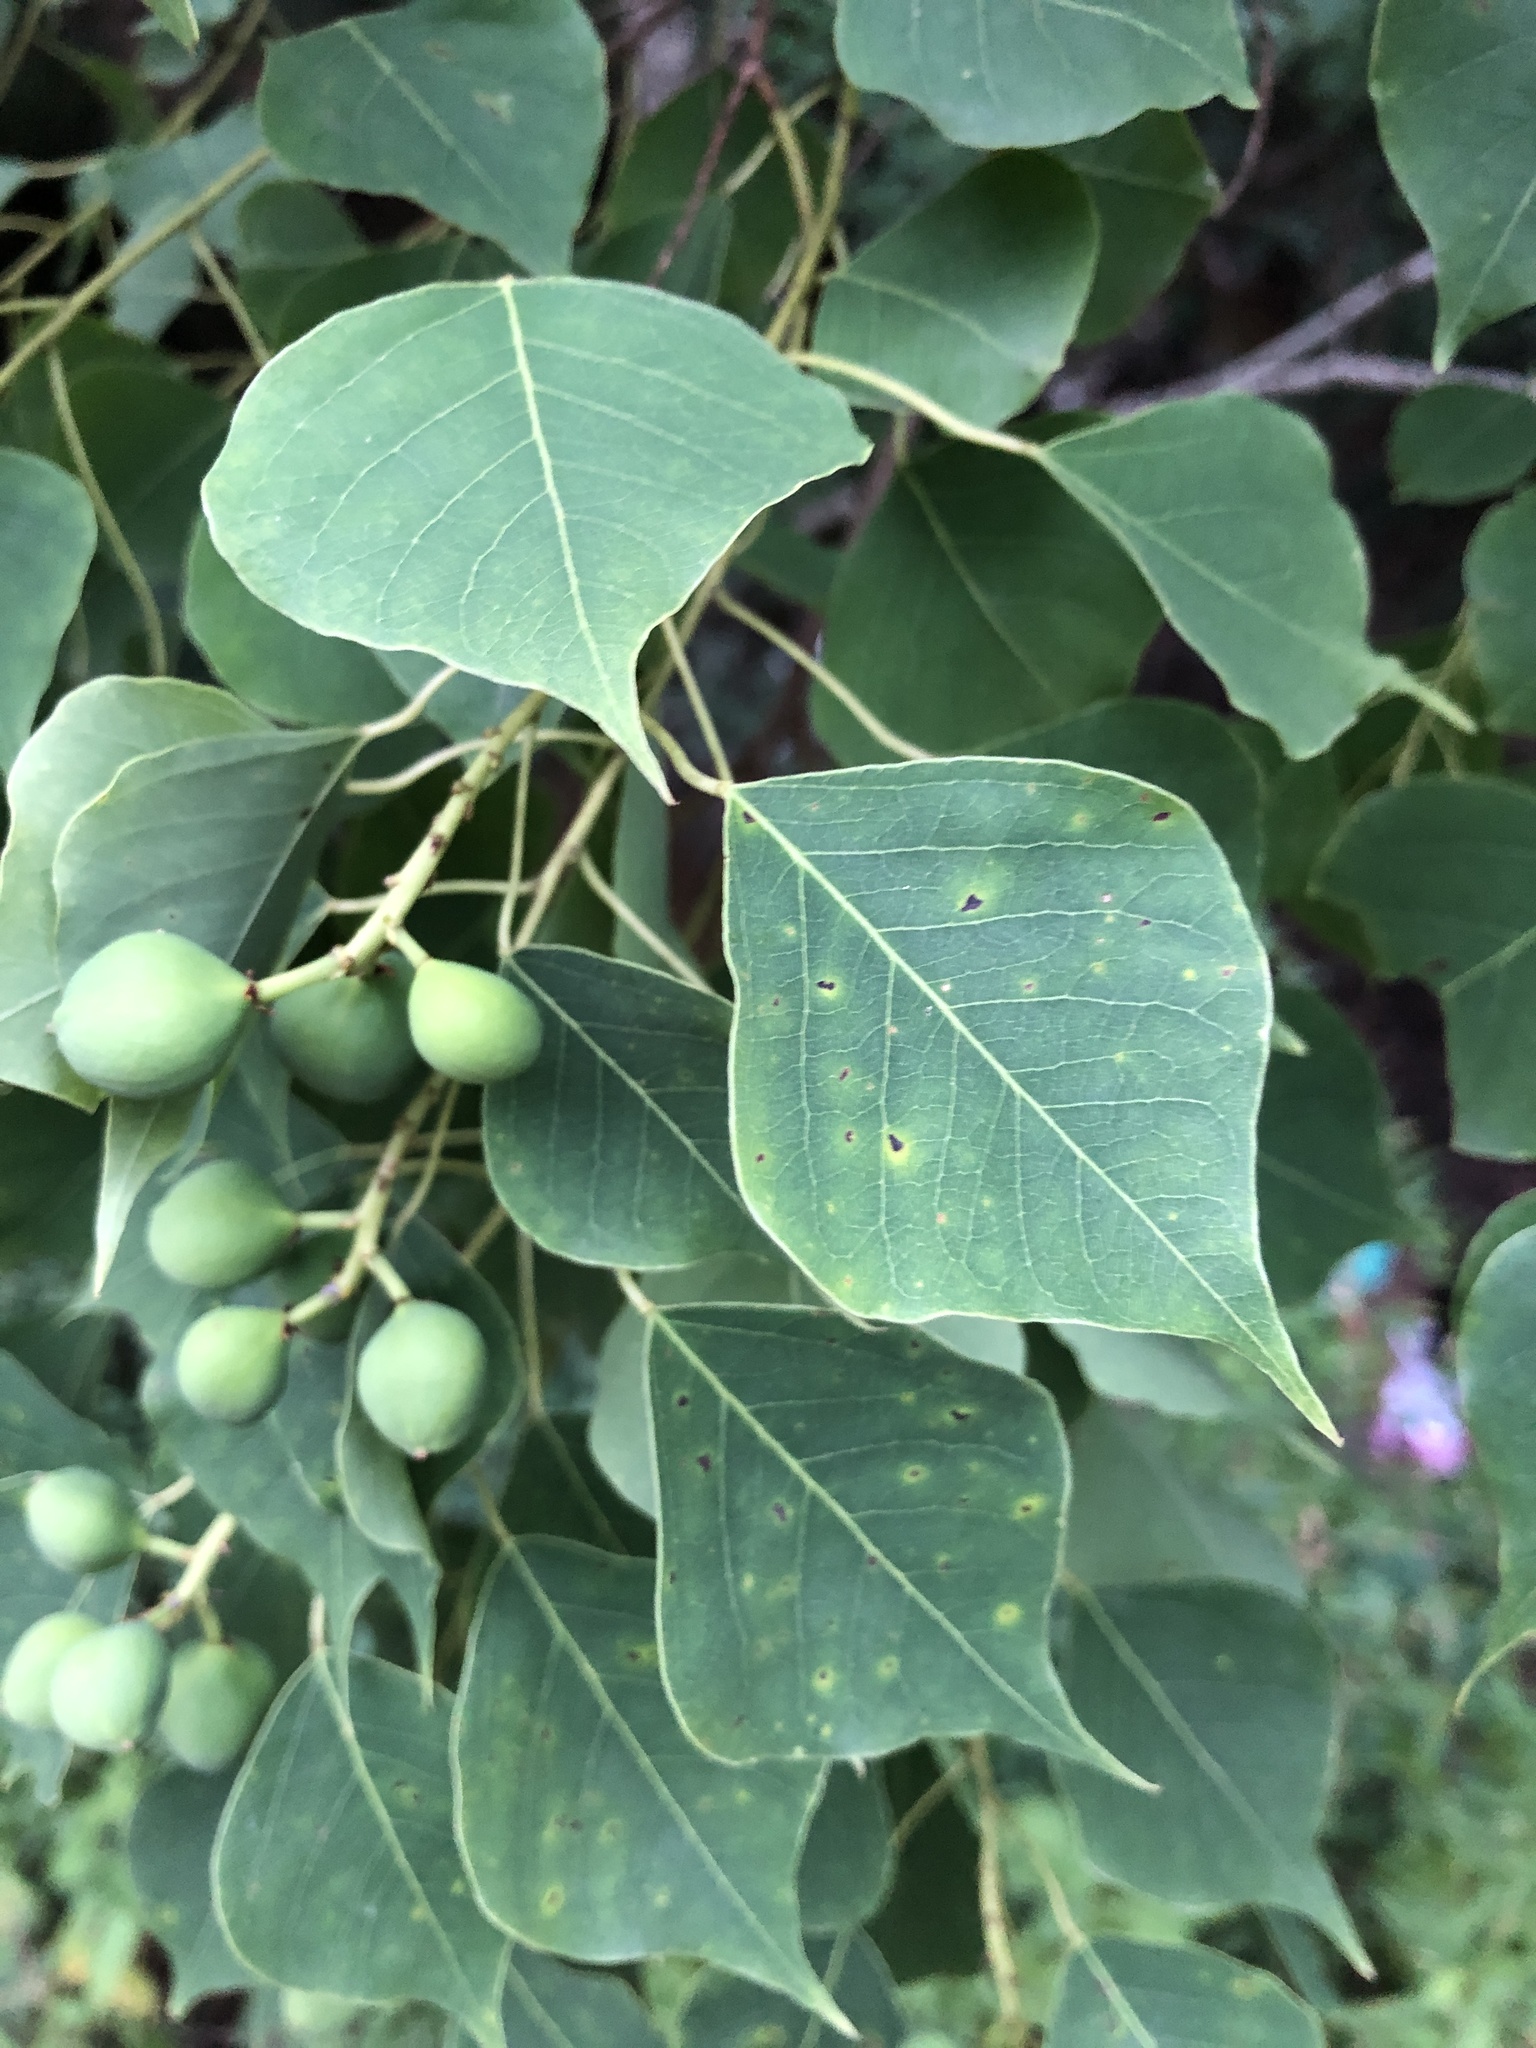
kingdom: Plantae
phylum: Tracheophyta
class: Magnoliopsida
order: Malpighiales
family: Euphorbiaceae
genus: Triadica
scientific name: Triadica sebifera
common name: Chinese tallow
